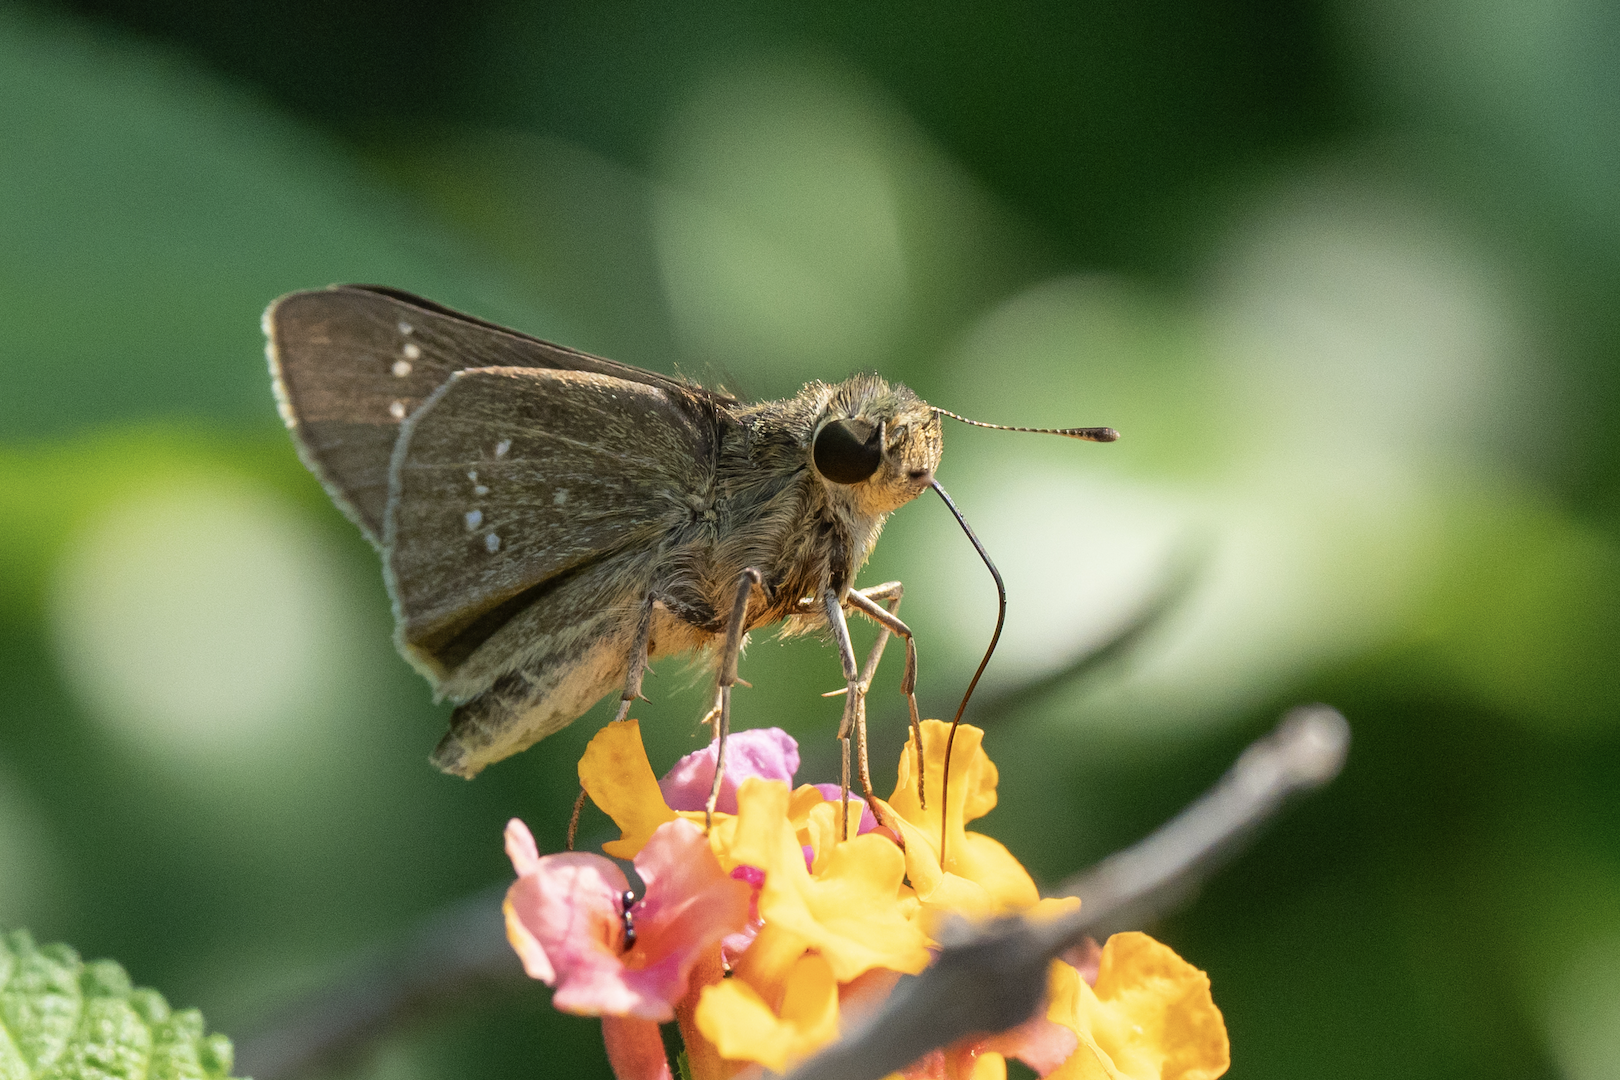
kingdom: Animalia
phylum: Arthropoda
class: Insecta
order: Lepidoptera
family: Hesperiidae
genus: Parnara
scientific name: Parnara ganga
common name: Continental swift
